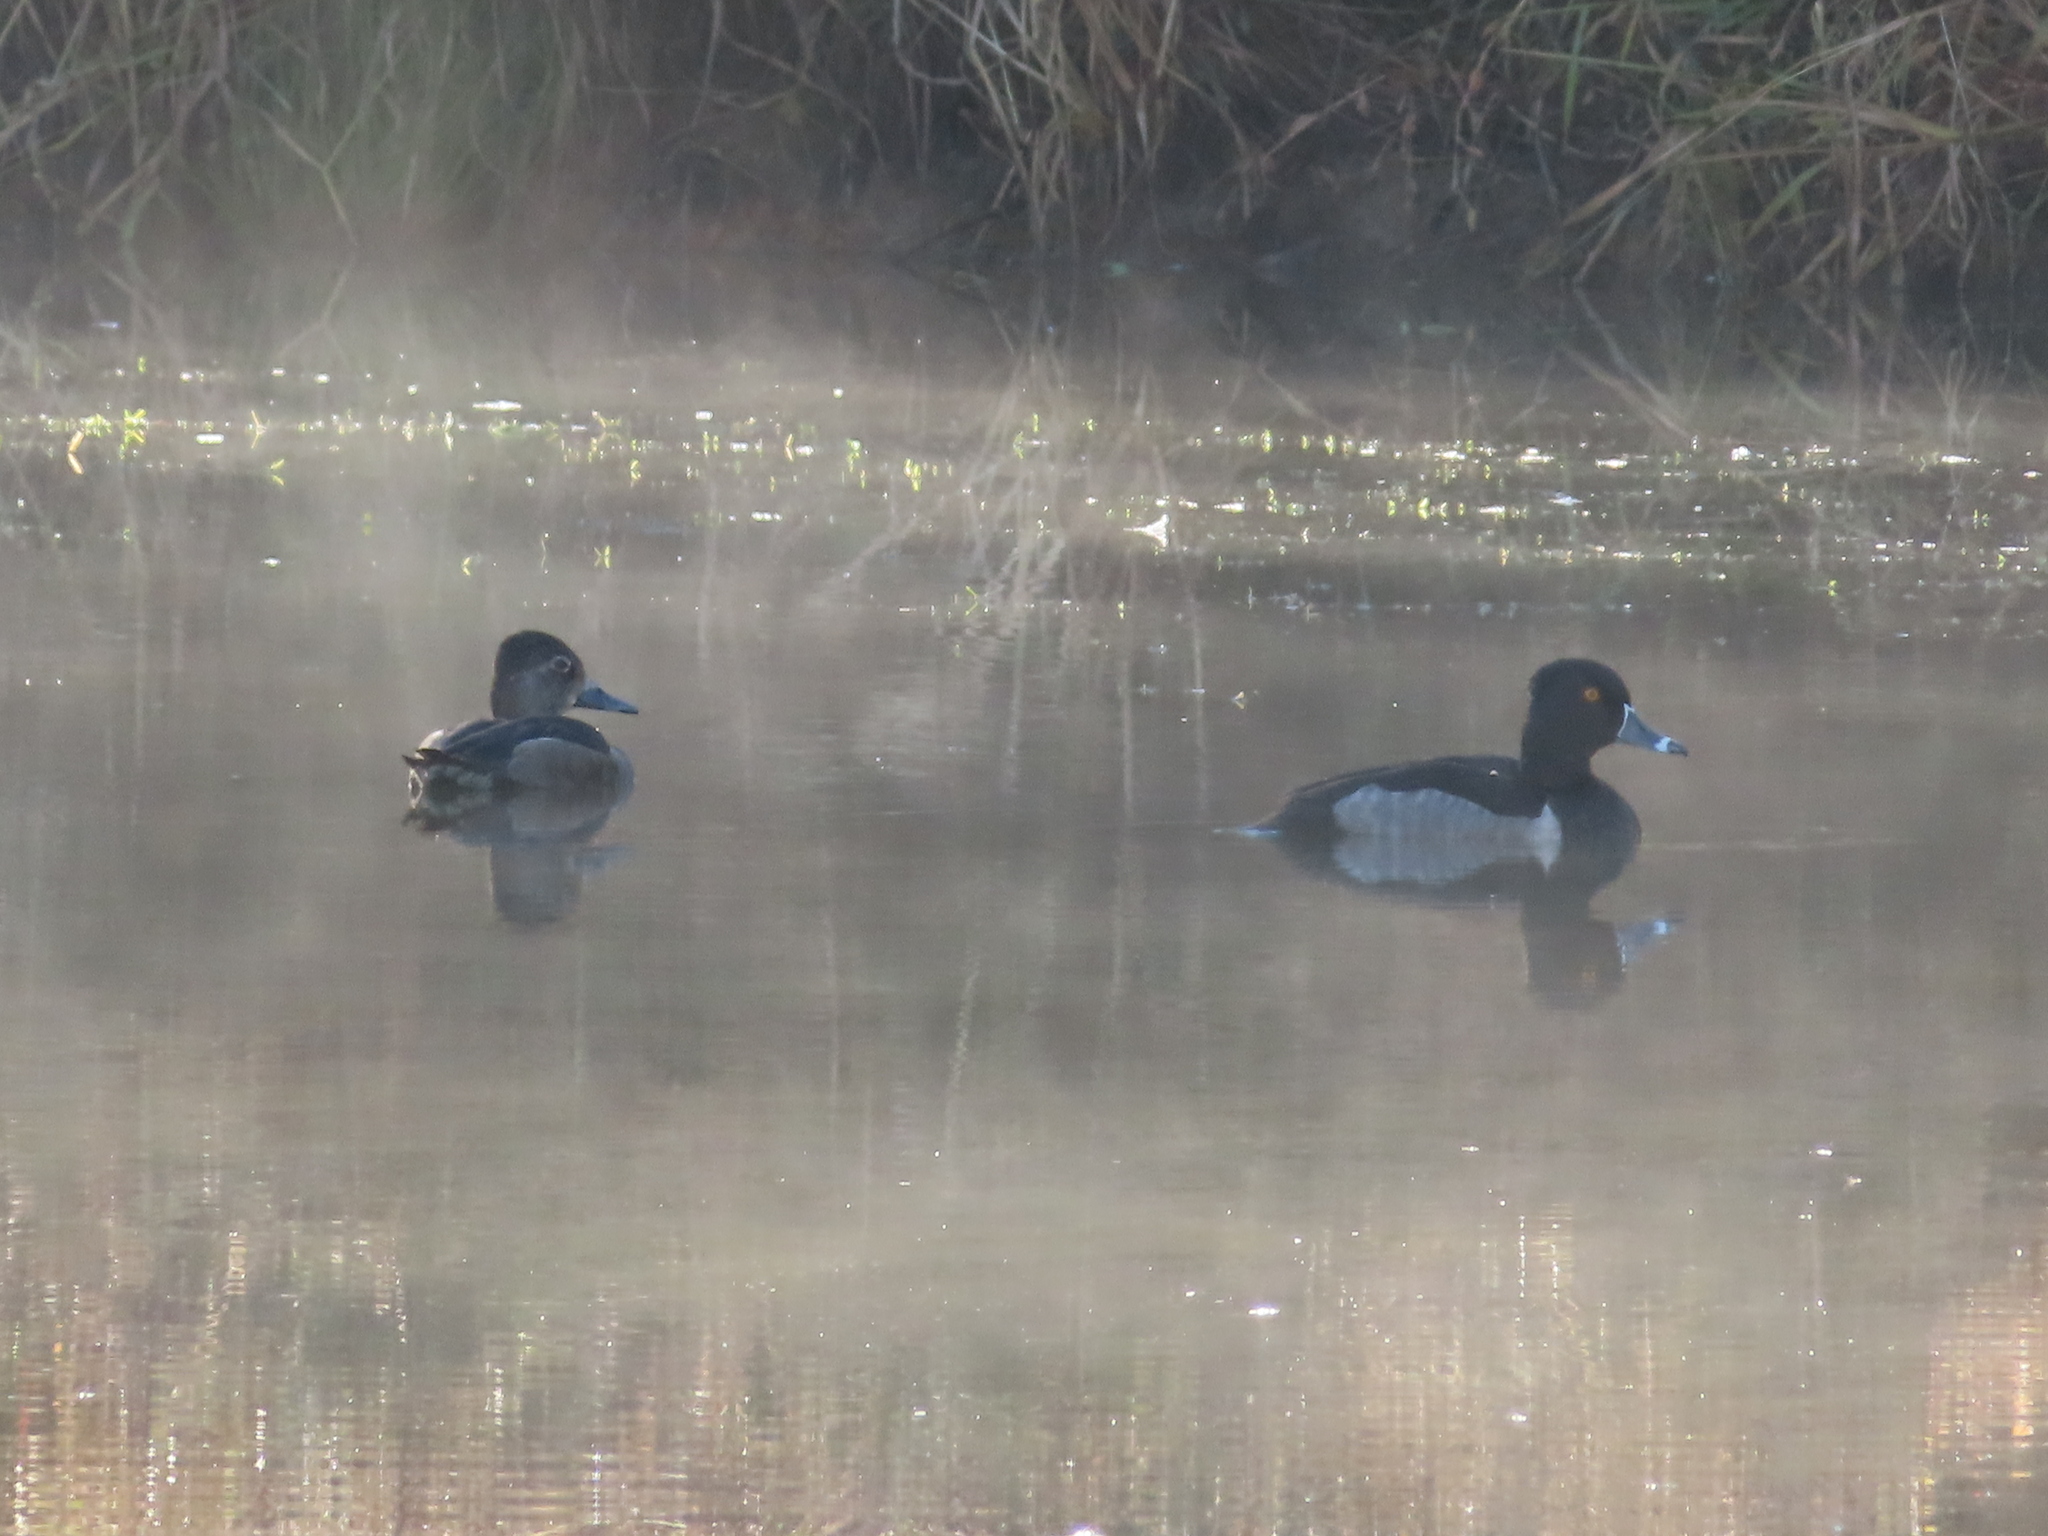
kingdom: Animalia
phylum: Chordata
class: Aves
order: Anseriformes
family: Anatidae
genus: Aythya
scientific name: Aythya collaris
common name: Ring-necked duck
